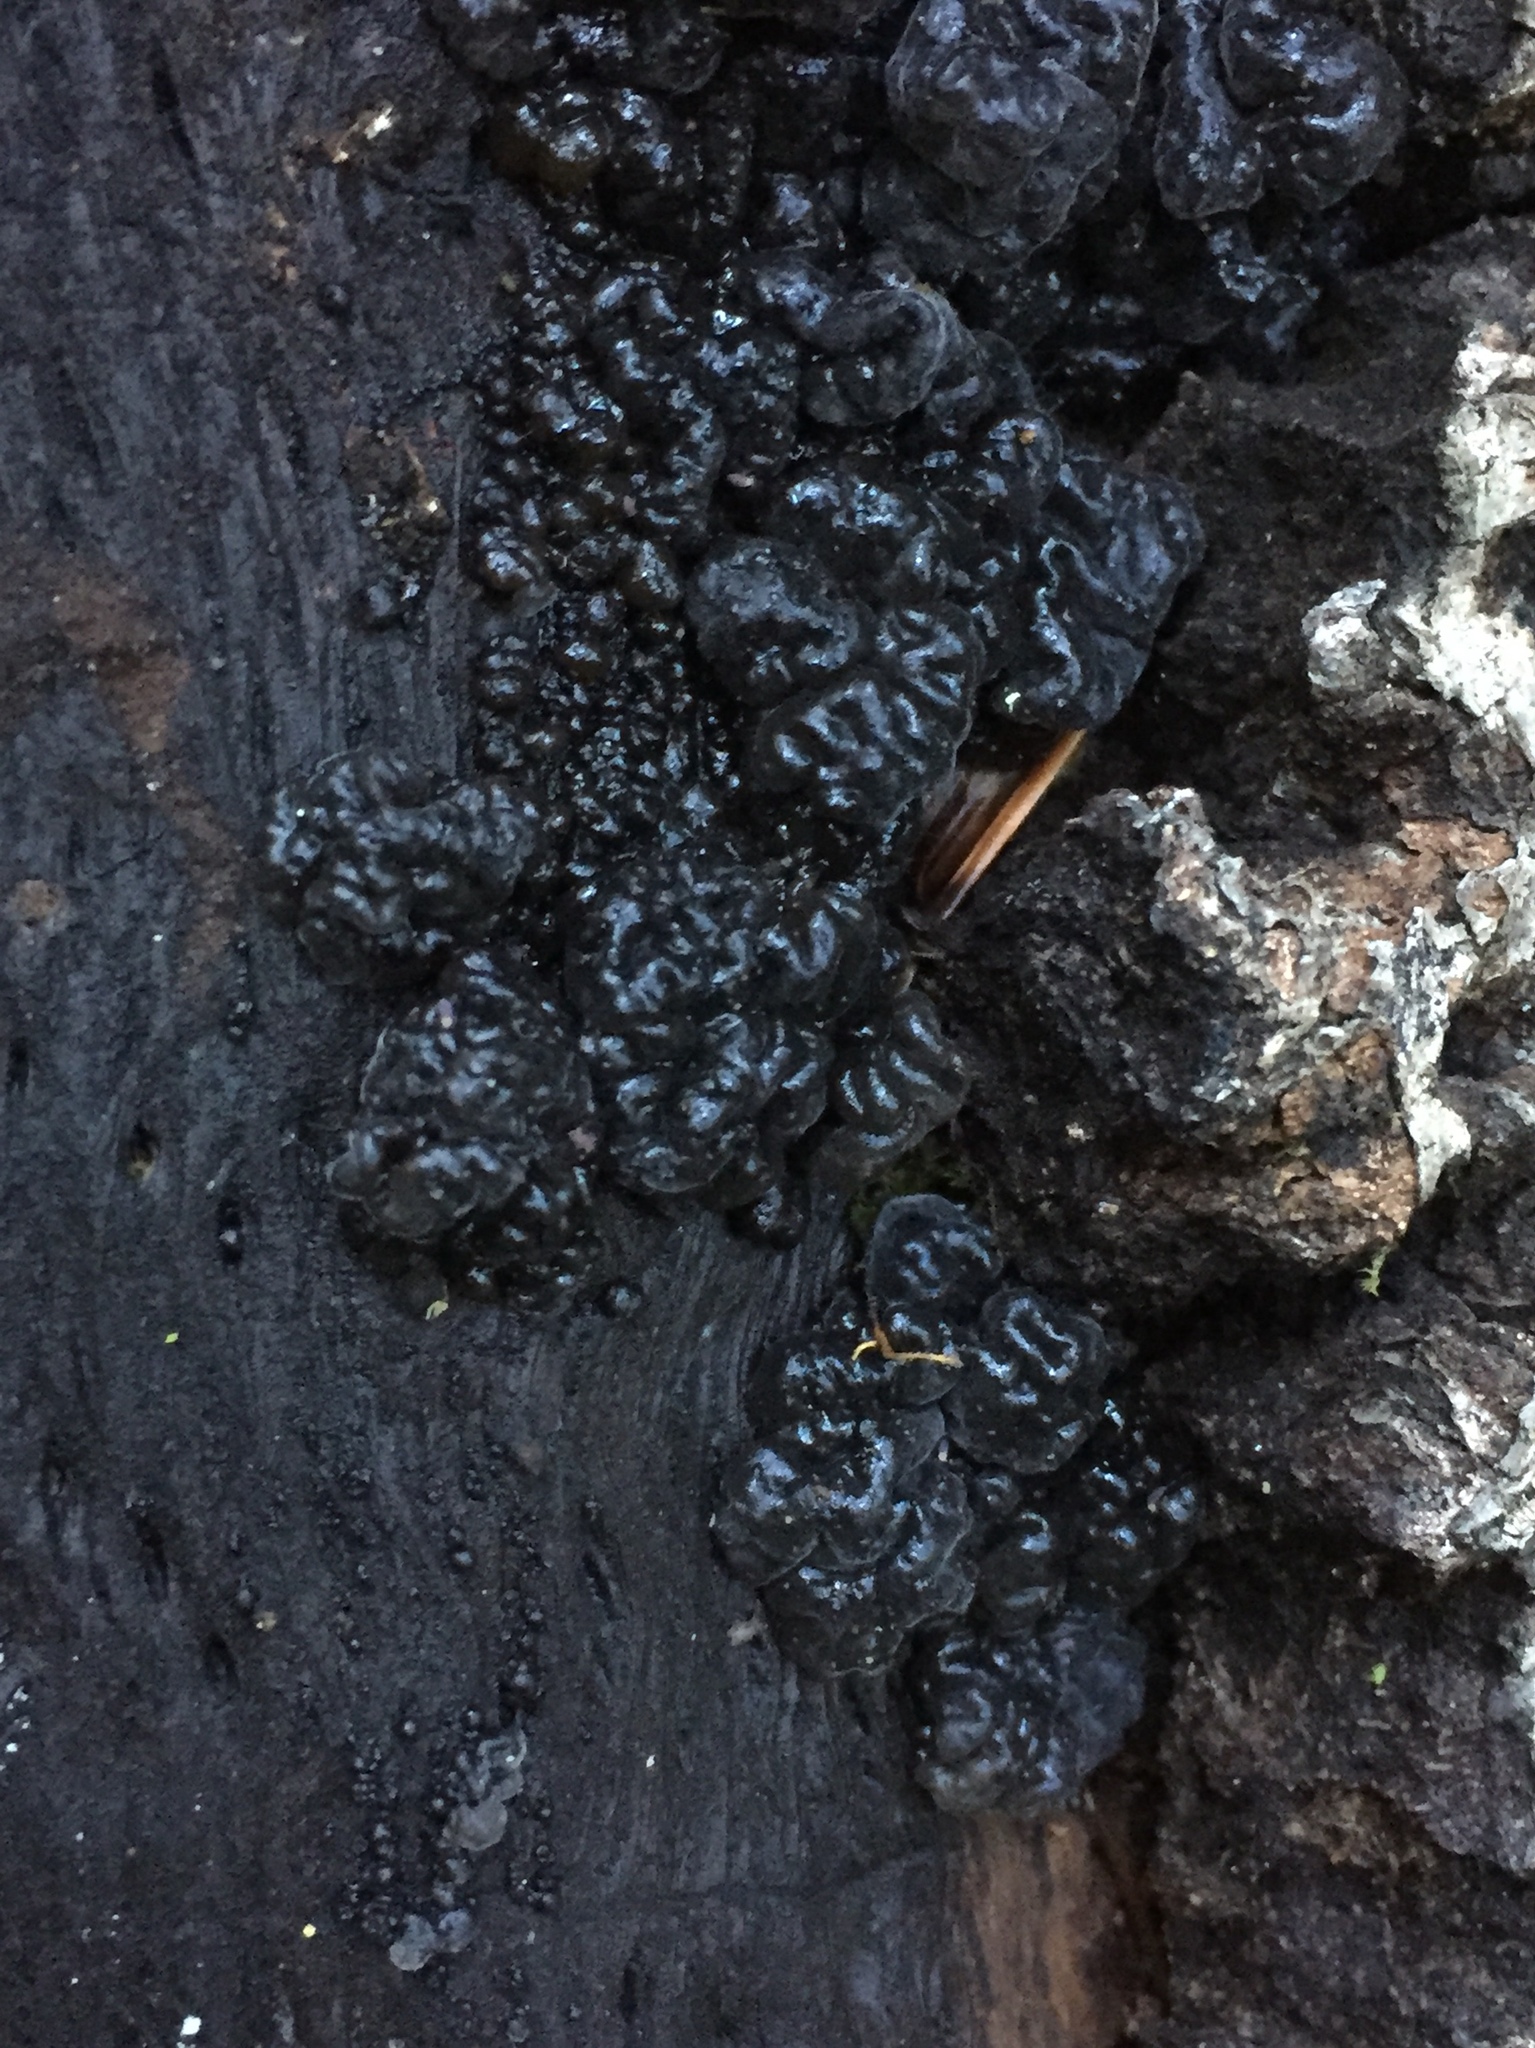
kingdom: Fungi
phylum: Basidiomycota
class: Agaricomycetes
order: Auriculariales
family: Auriculariaceae
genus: Exidia
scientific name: Exidia glandulosa
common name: Witches' butter
